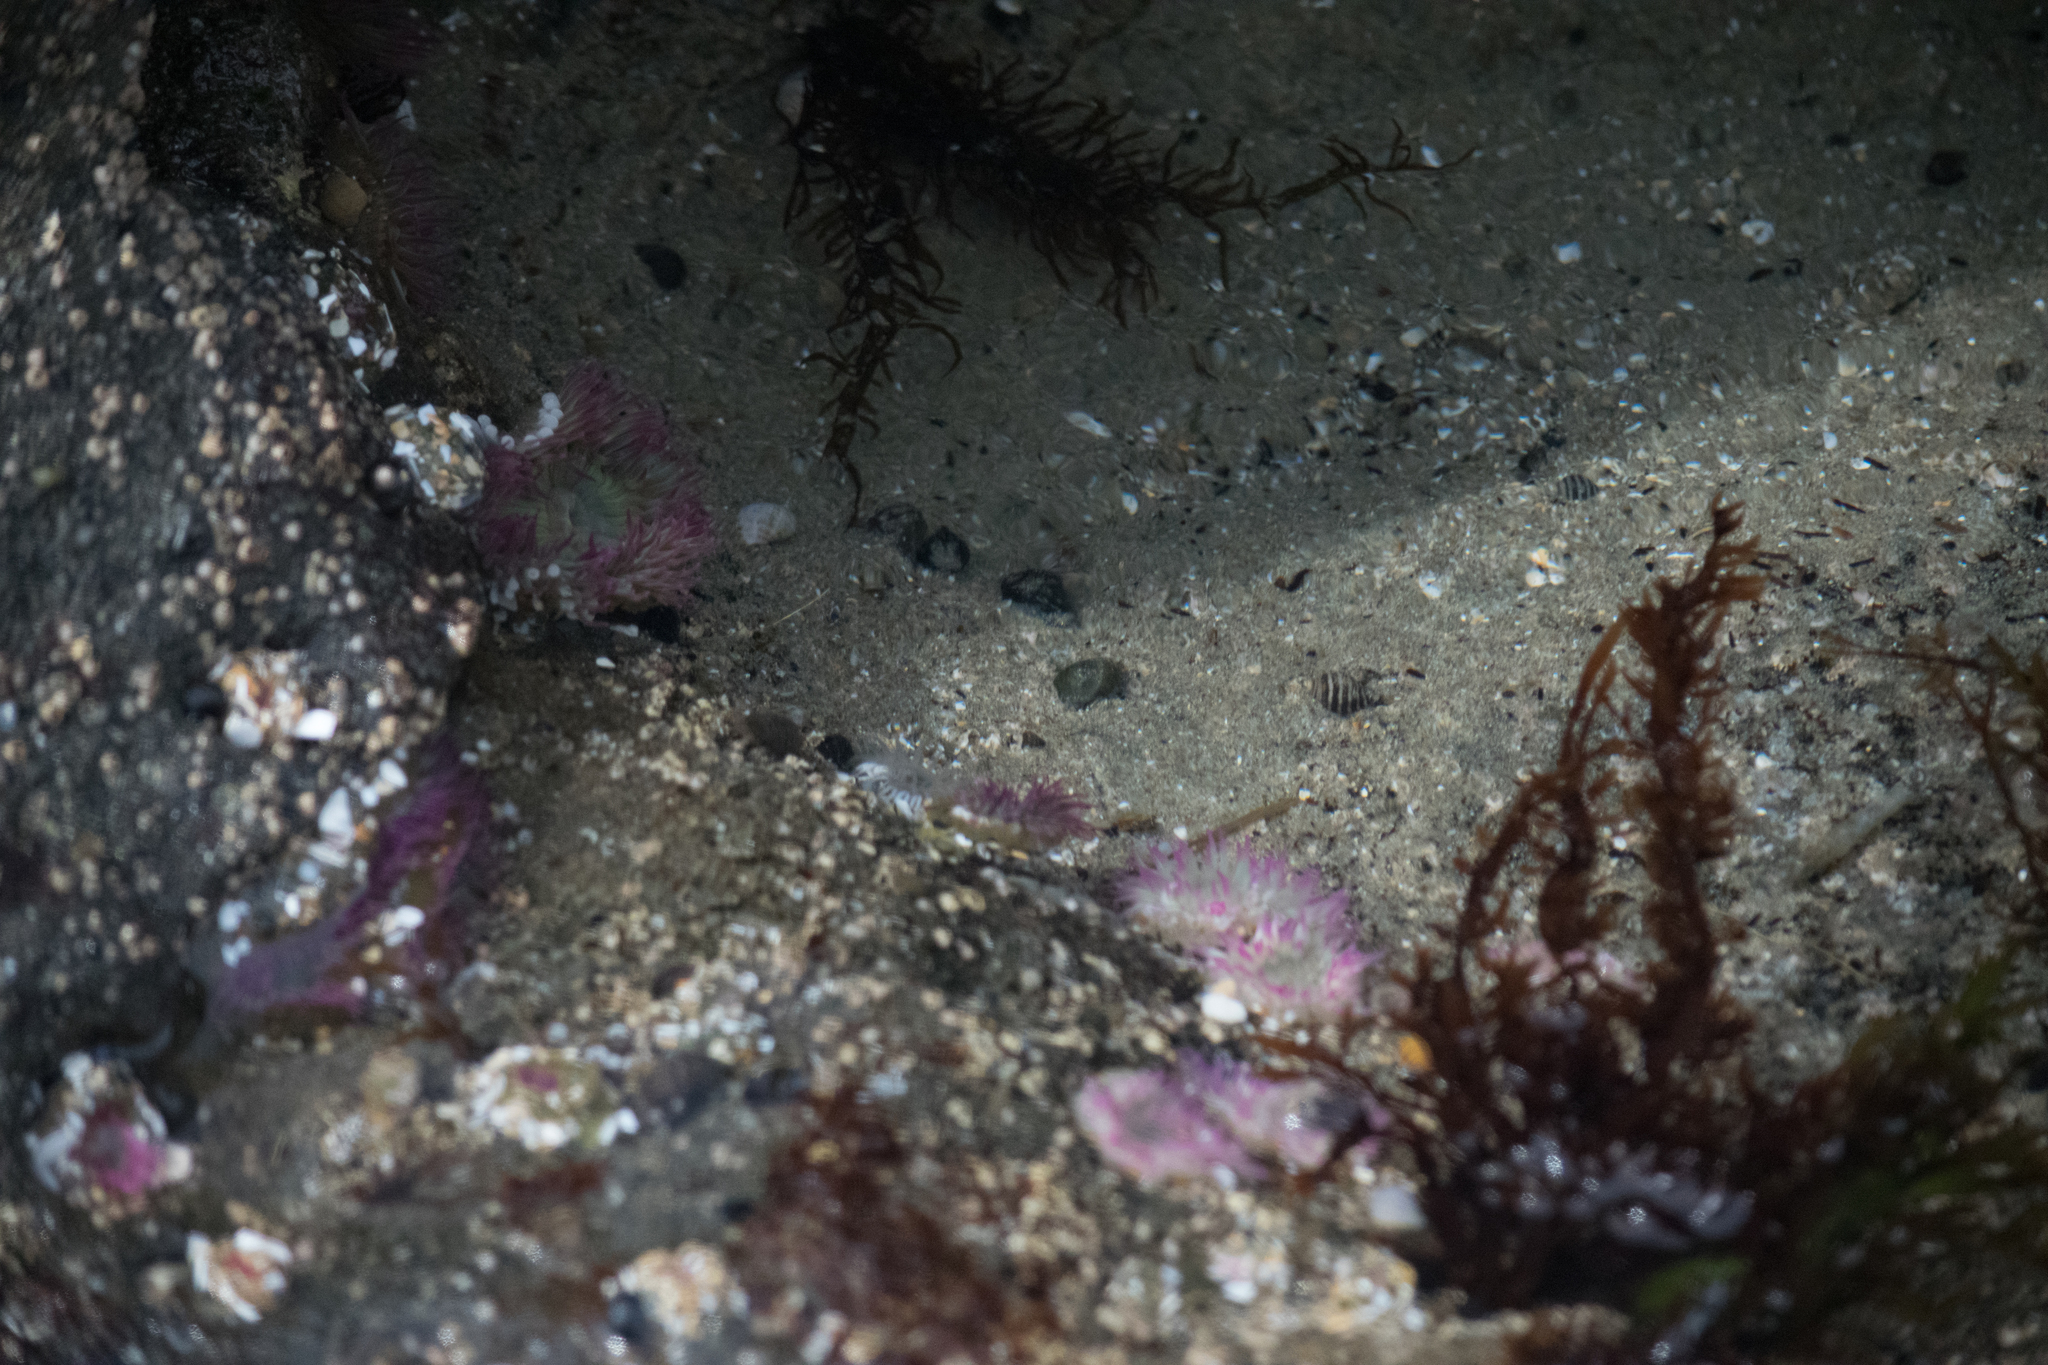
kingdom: Animalia
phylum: Mollusca
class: Gastropoda
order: Neogastropoda
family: Muricidae
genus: Nucella
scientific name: Nucella ostrina
